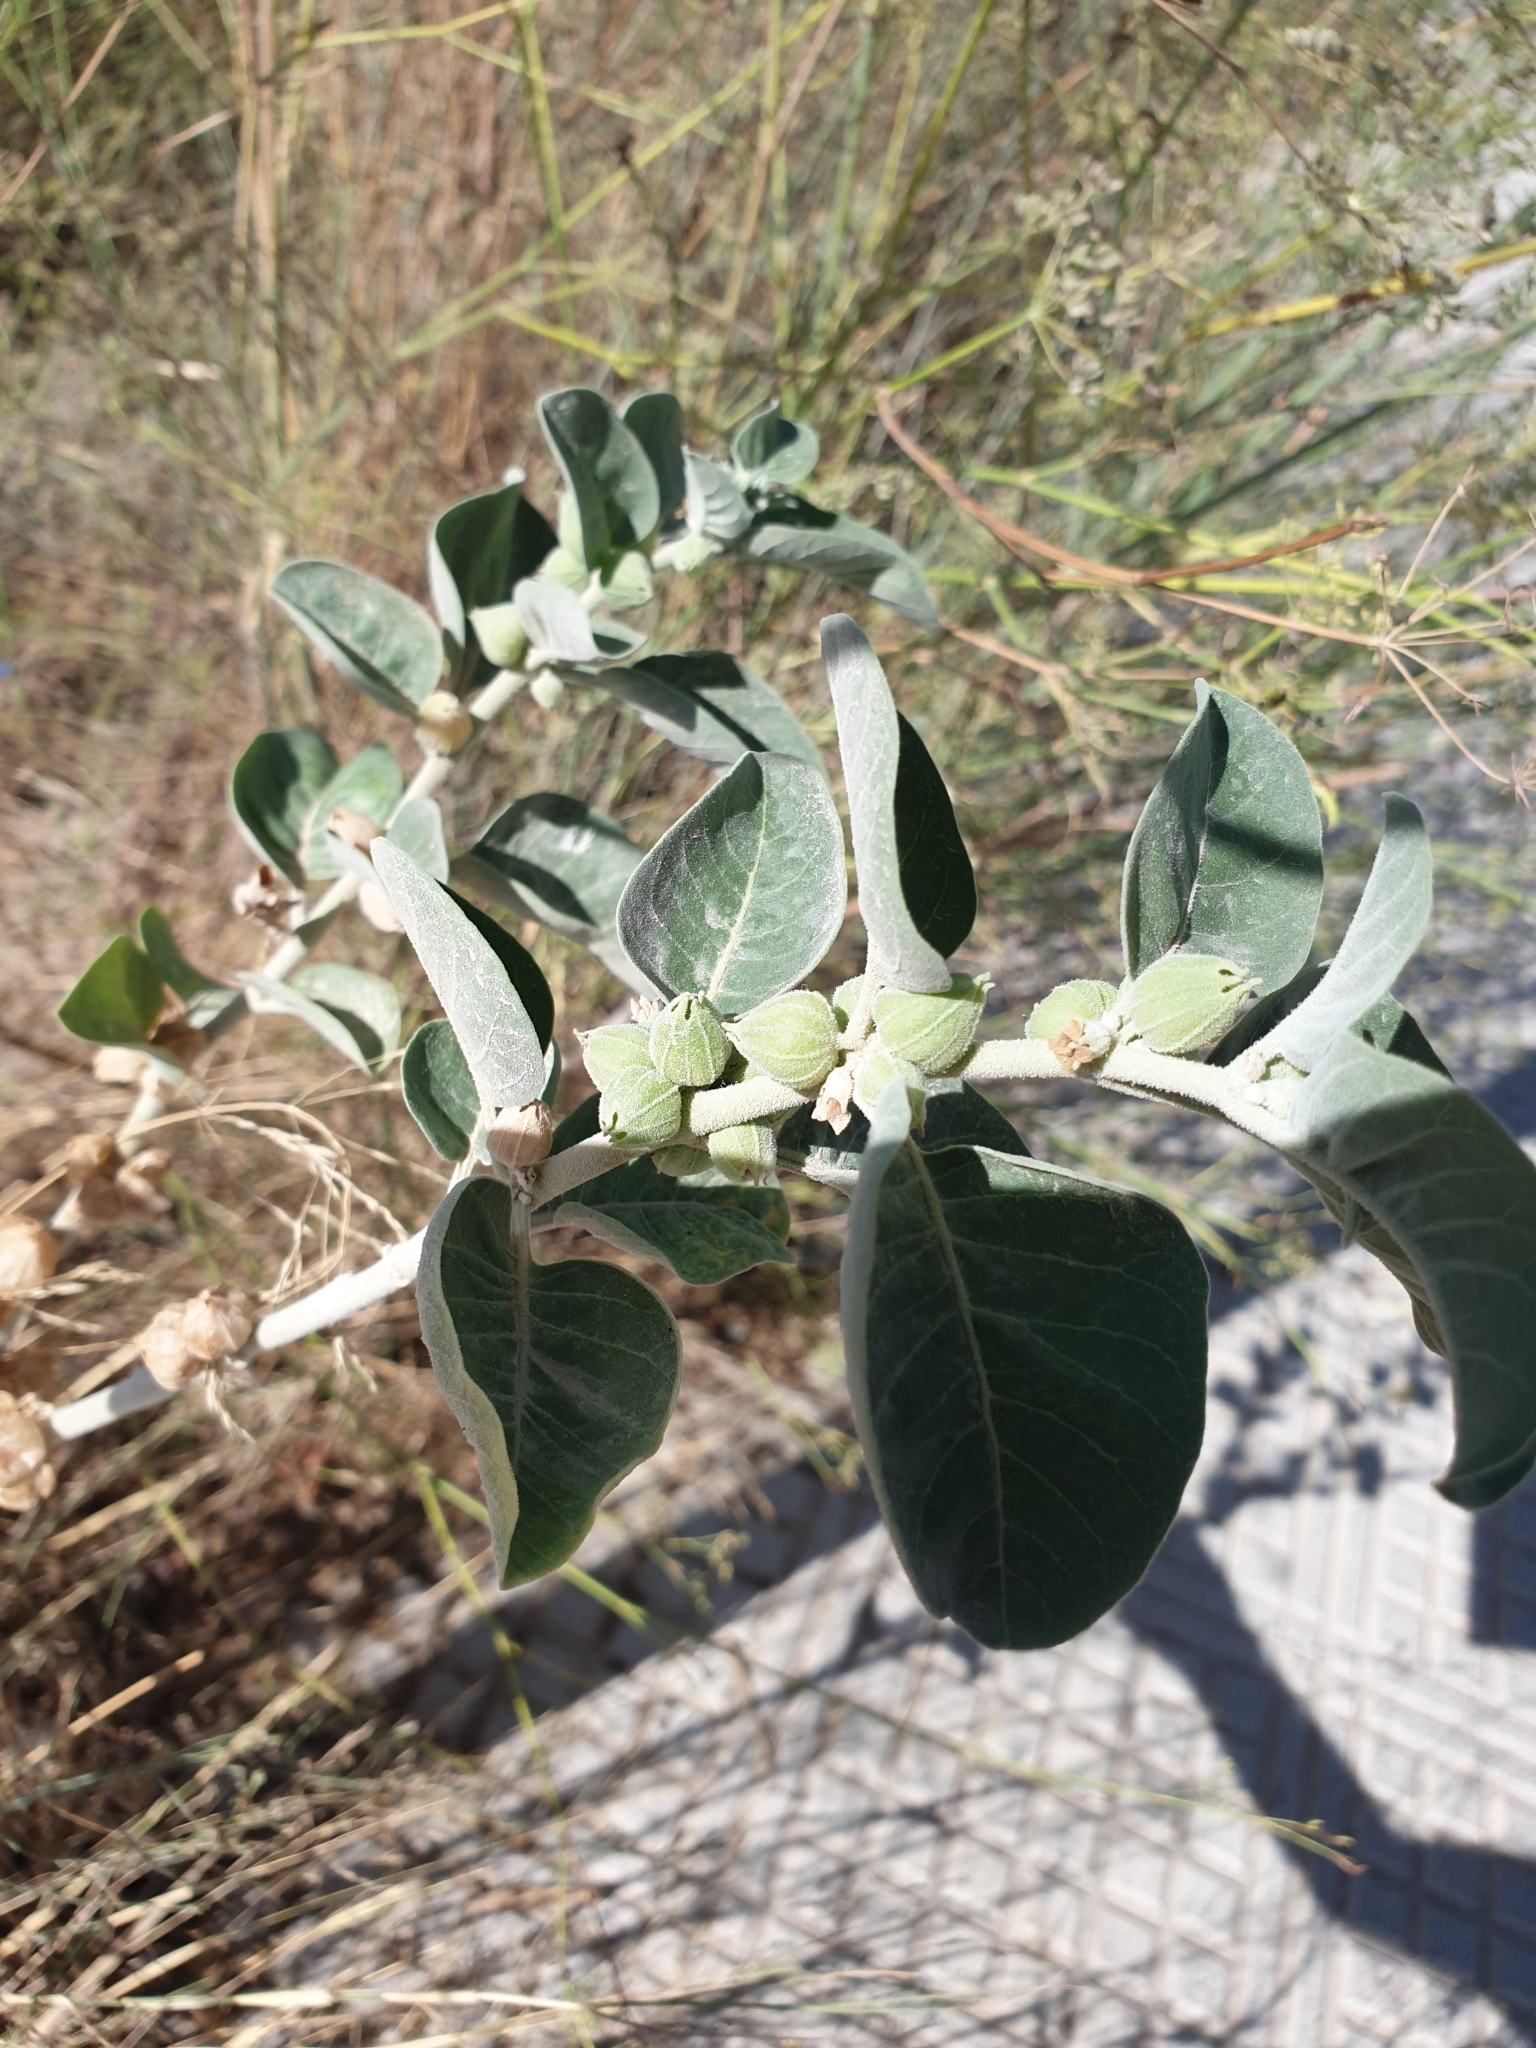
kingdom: Plantae
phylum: Tracheophyta
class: Magnoliopsida
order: Solanales
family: Solanaceae
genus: Withania
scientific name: Withania somnifera
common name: Winter-cherry
